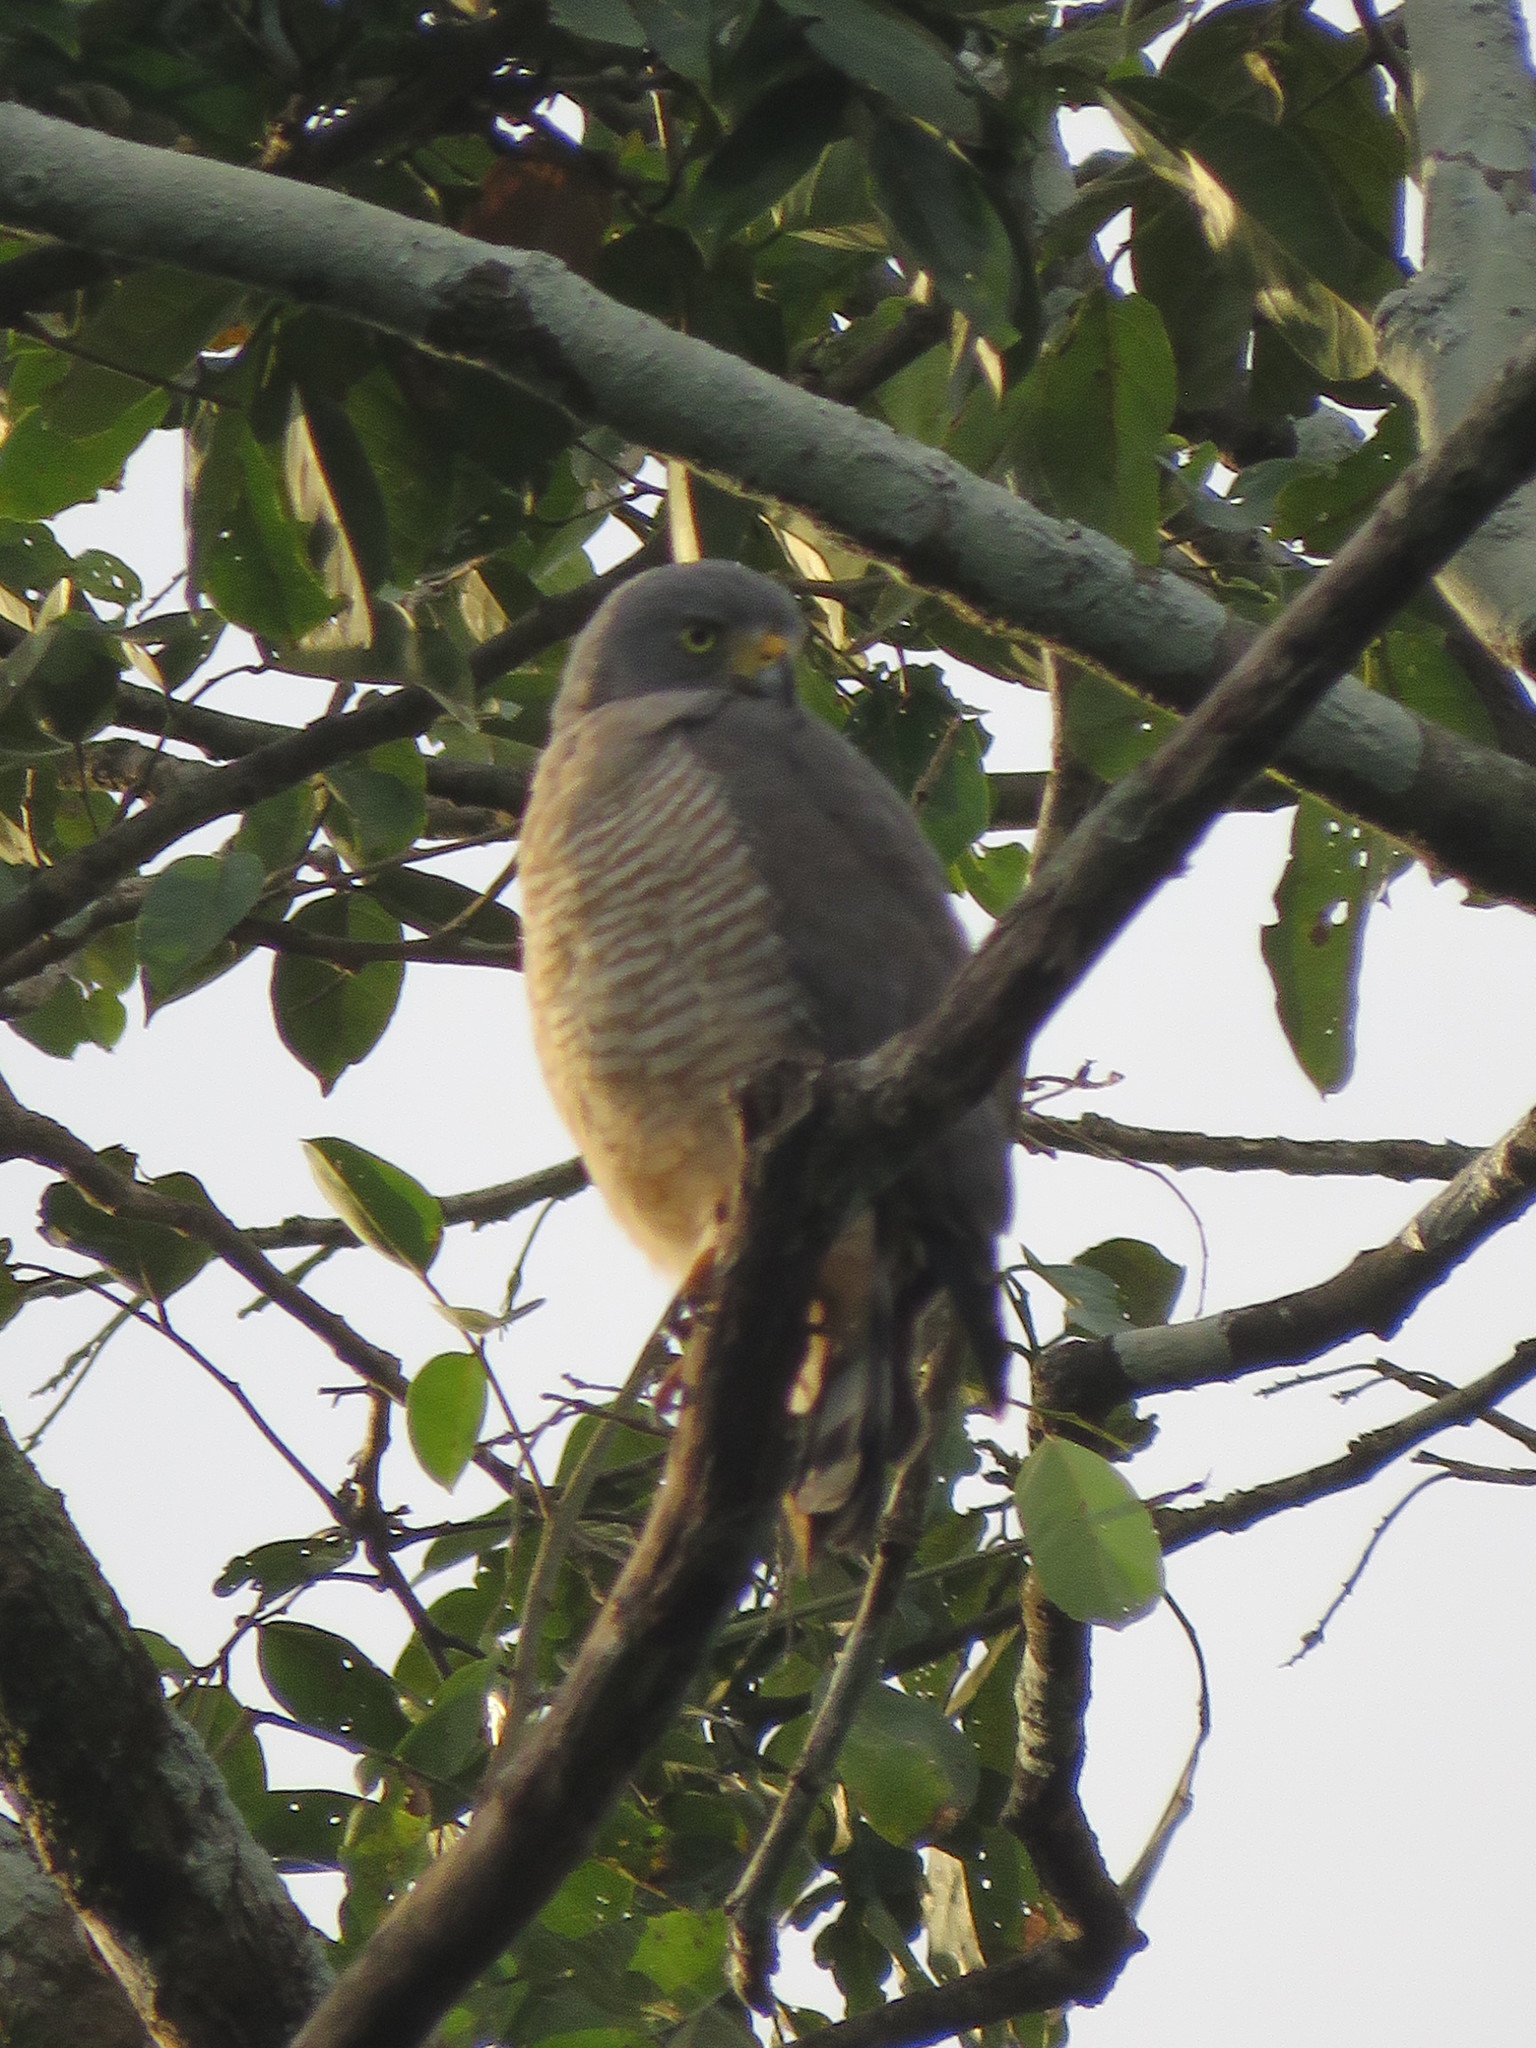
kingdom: Animalia
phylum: Chordata
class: Aves
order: Accipitriformes
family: Accipitridae
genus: Rupornis
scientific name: Rupornis magnirostris
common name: Roadside hawk
